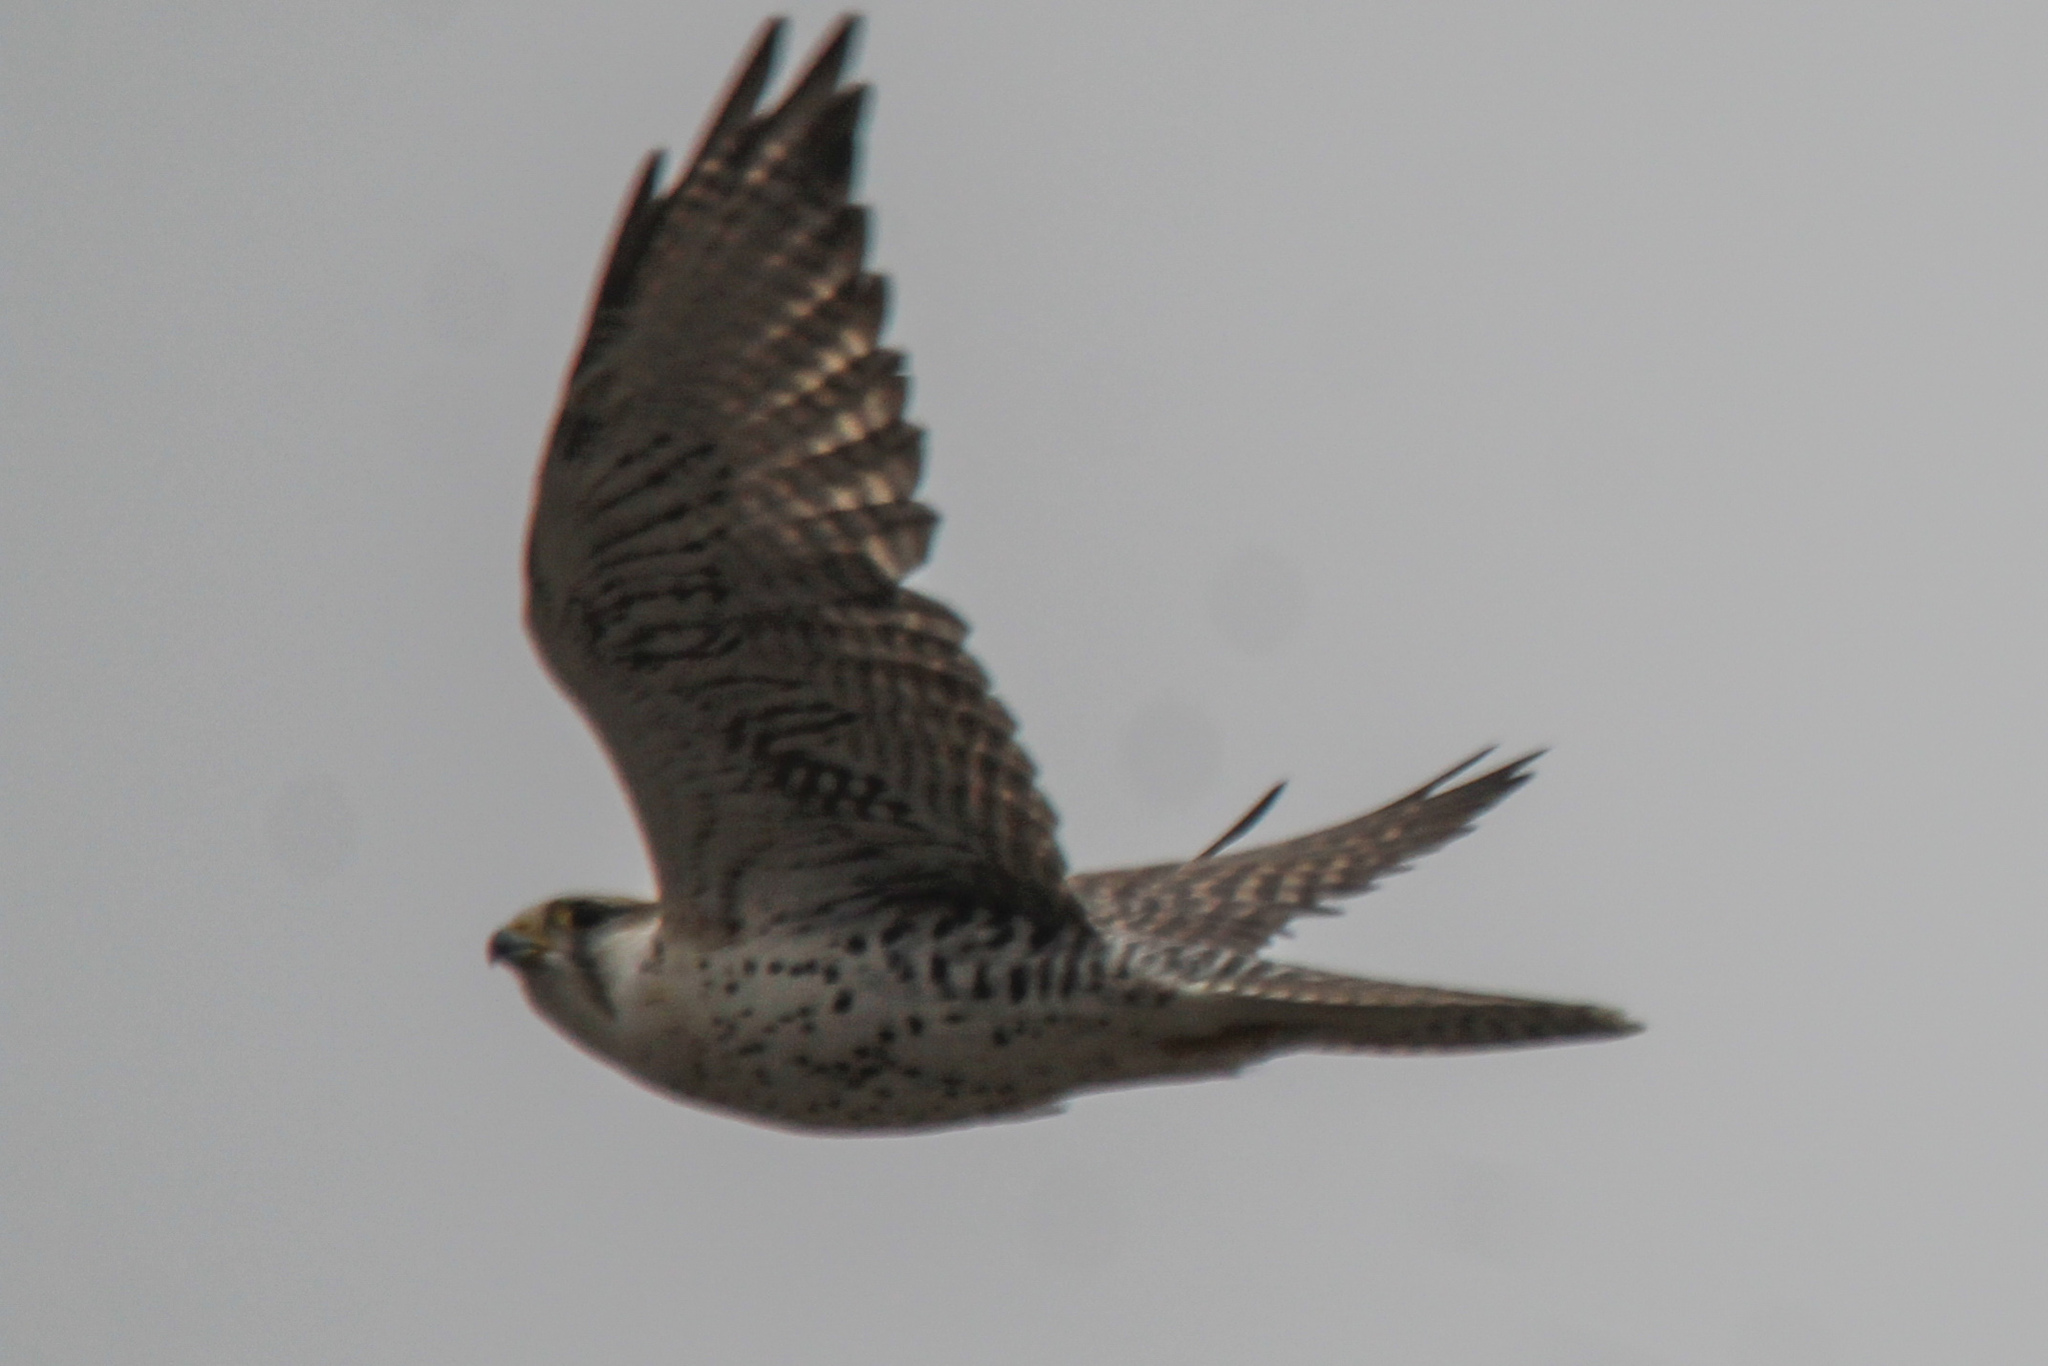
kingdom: Animalia
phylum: Chordata
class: Aves
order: Falconiformes
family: Falconidae
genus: Falco
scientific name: Falco cherrug
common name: Saker falcon
